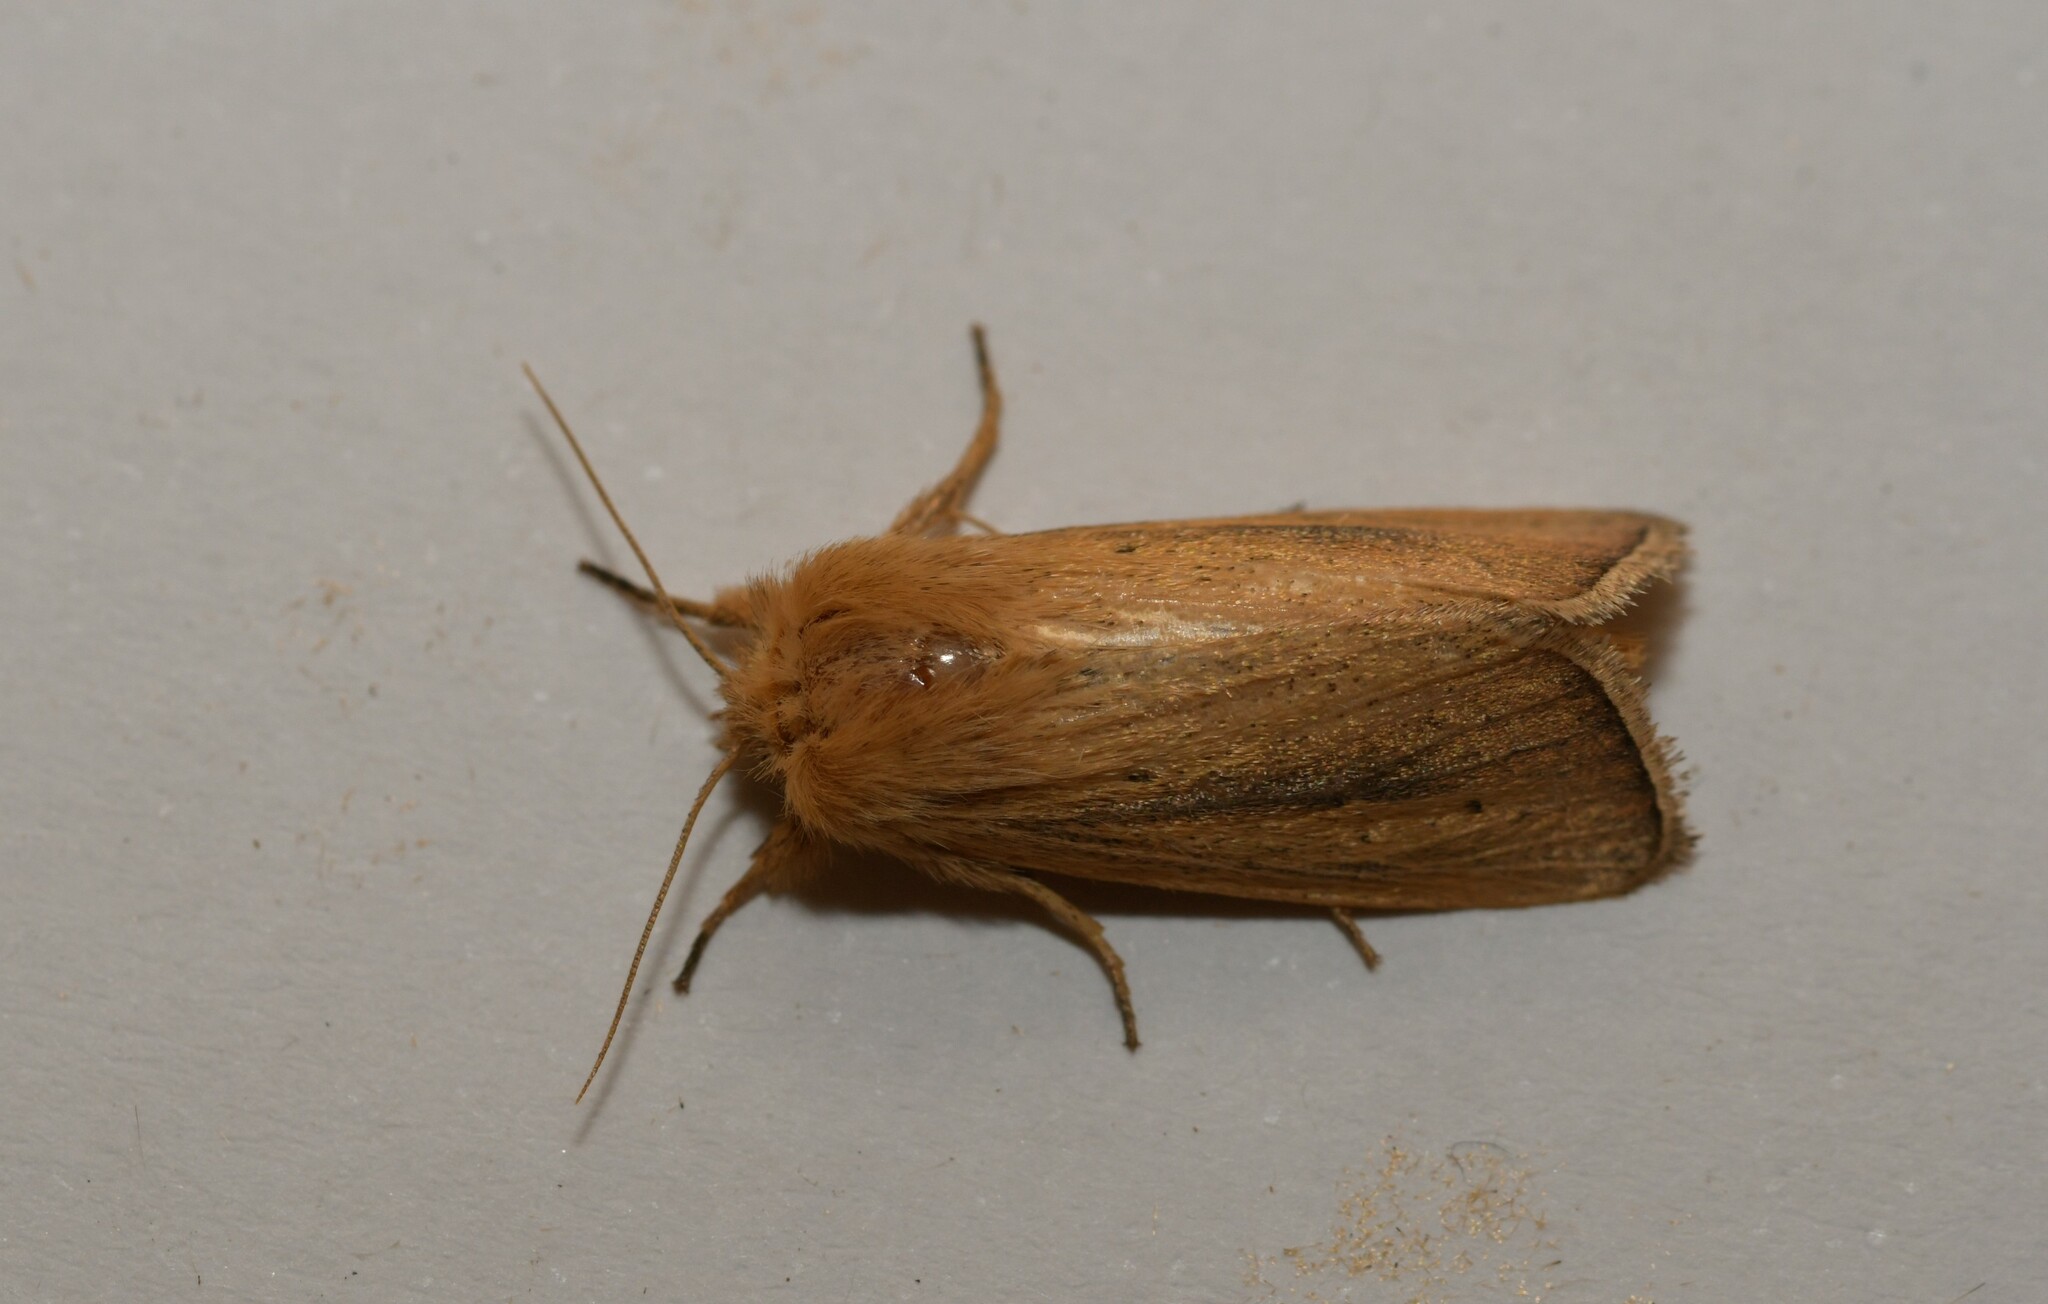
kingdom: Animalia
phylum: Arthropoda
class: Insecta
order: Lepidoptera
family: Noctuidae
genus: Sesamia
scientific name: Sesamia nonagrioides
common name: Pink stem borer
